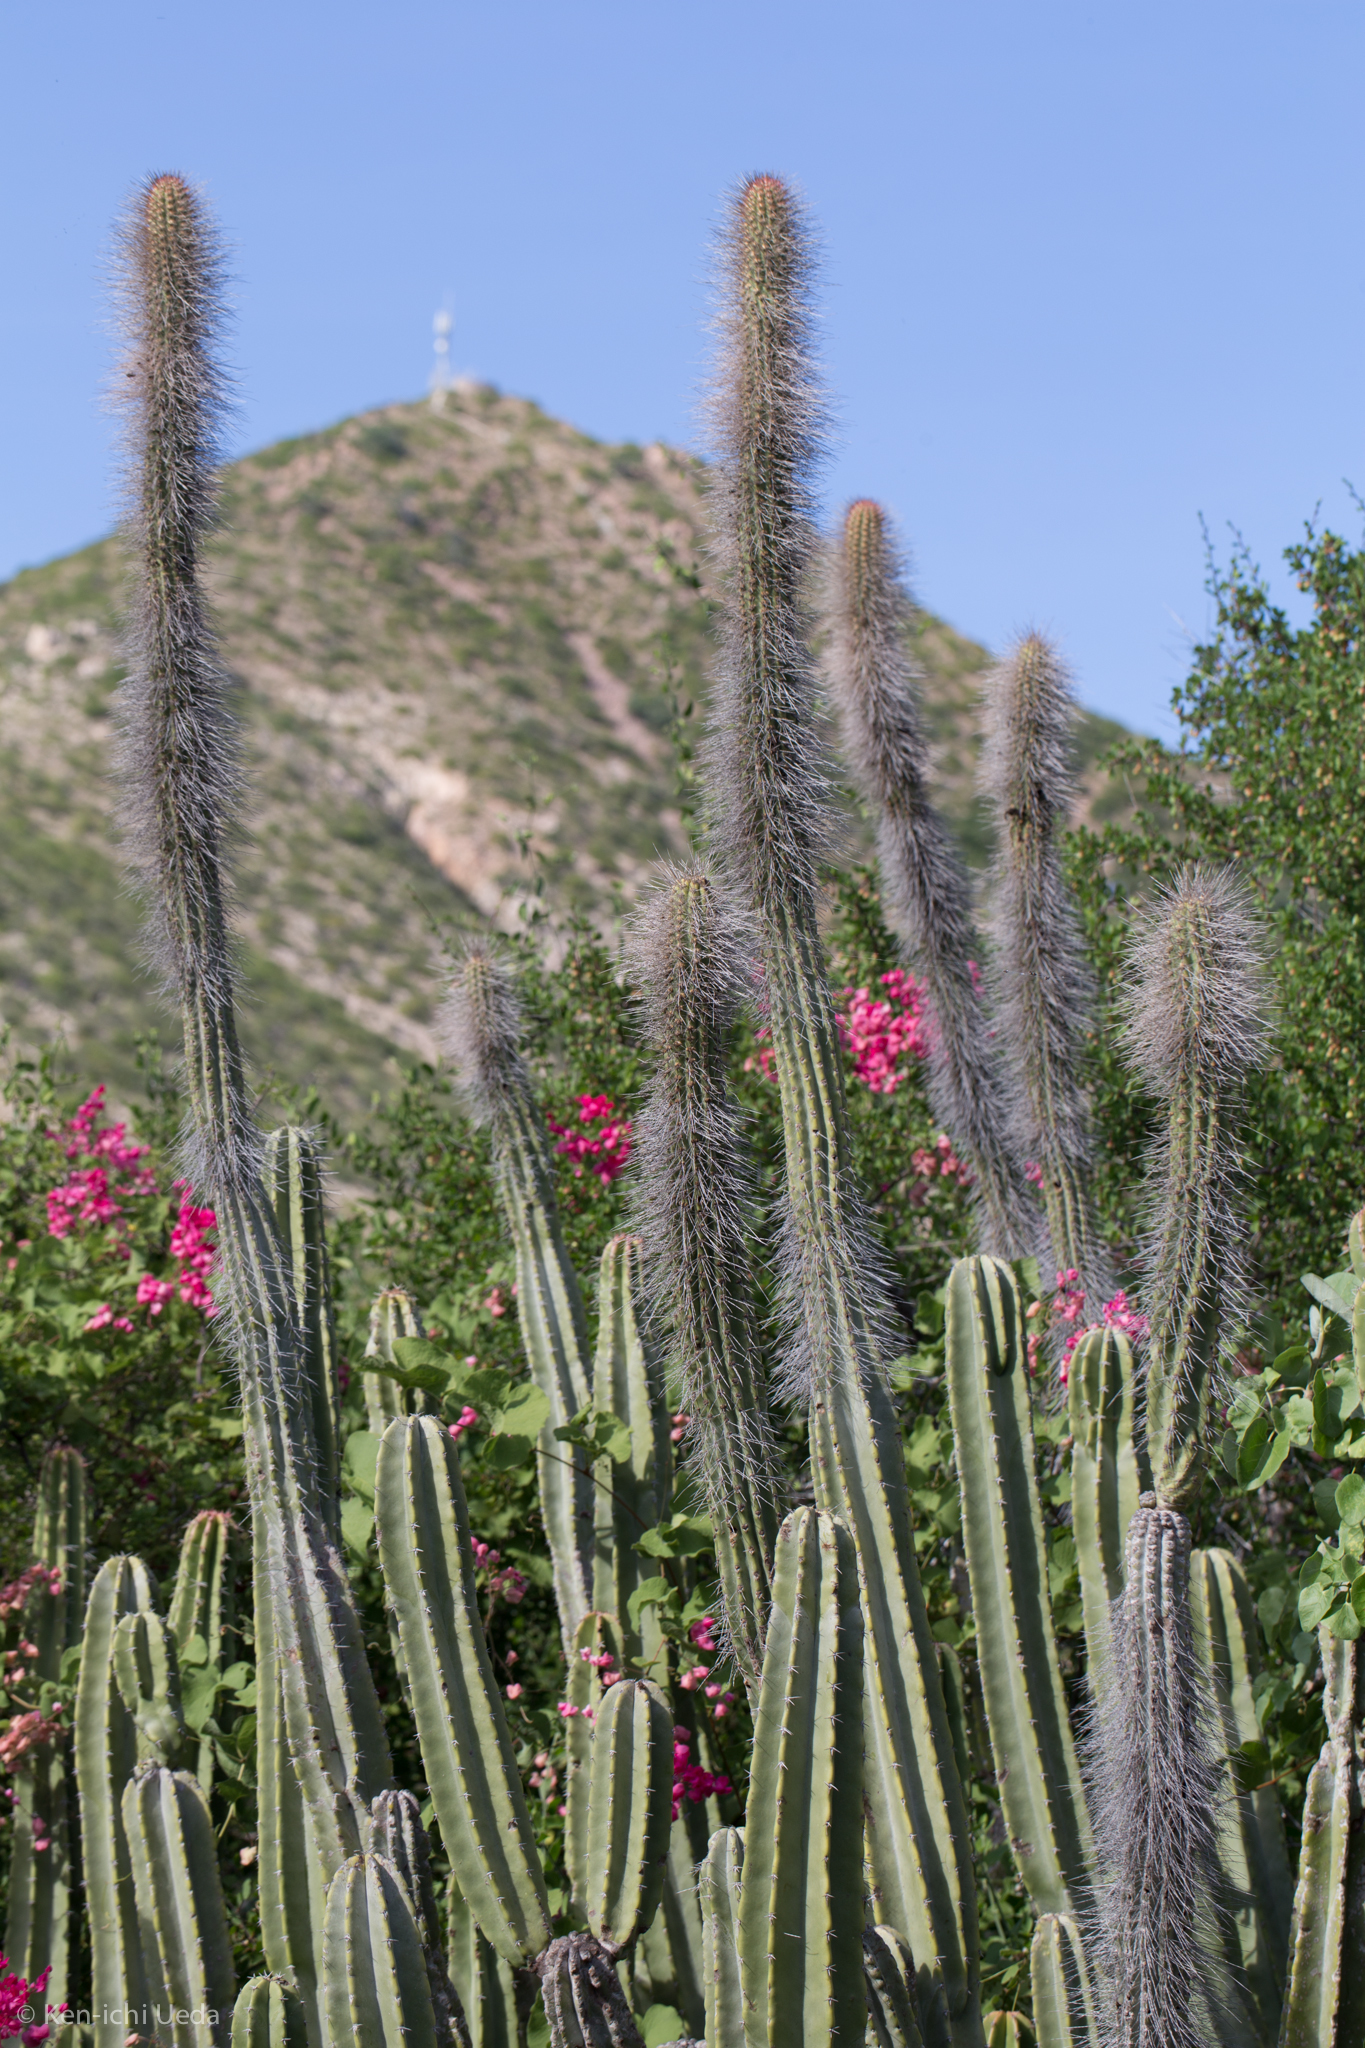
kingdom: Plantae
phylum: Tracheophyta
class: Magnoliopsida
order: Caryophyllales
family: Cactaceae
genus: Pachycereus
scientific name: Pachycereus schottii
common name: Senita cactus
